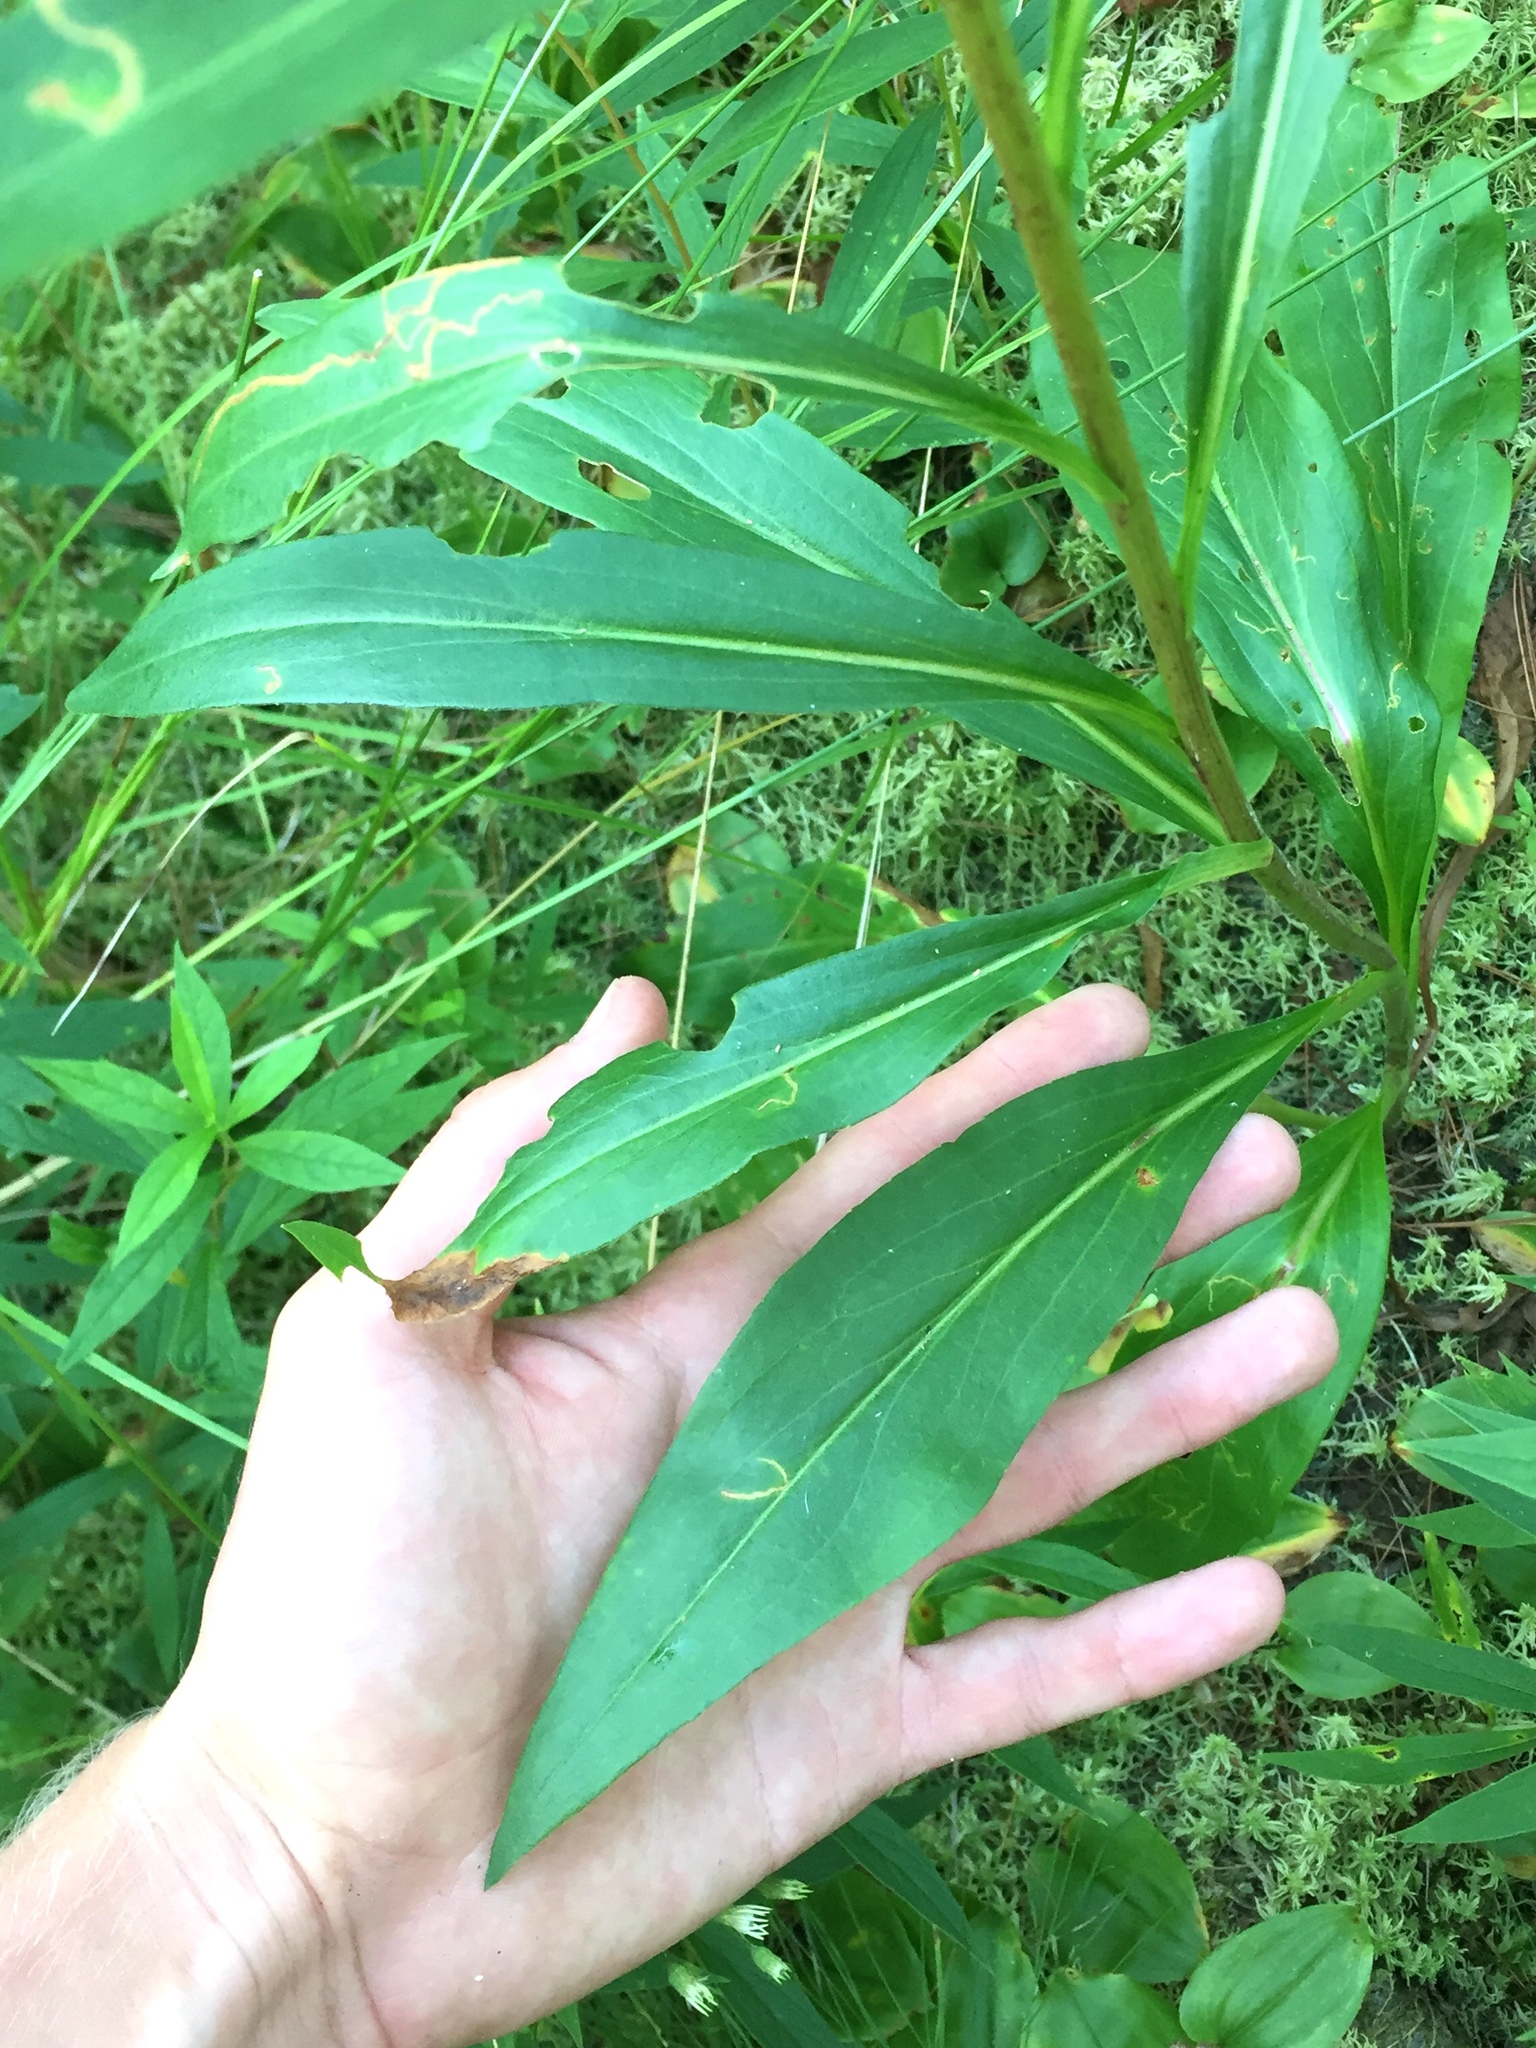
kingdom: Plantae
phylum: Tracheophyta
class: Magnoliopsida
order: Asterales
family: Asteraceae
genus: Solidago
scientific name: Solidago uliginosa
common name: Bog goldenrod
